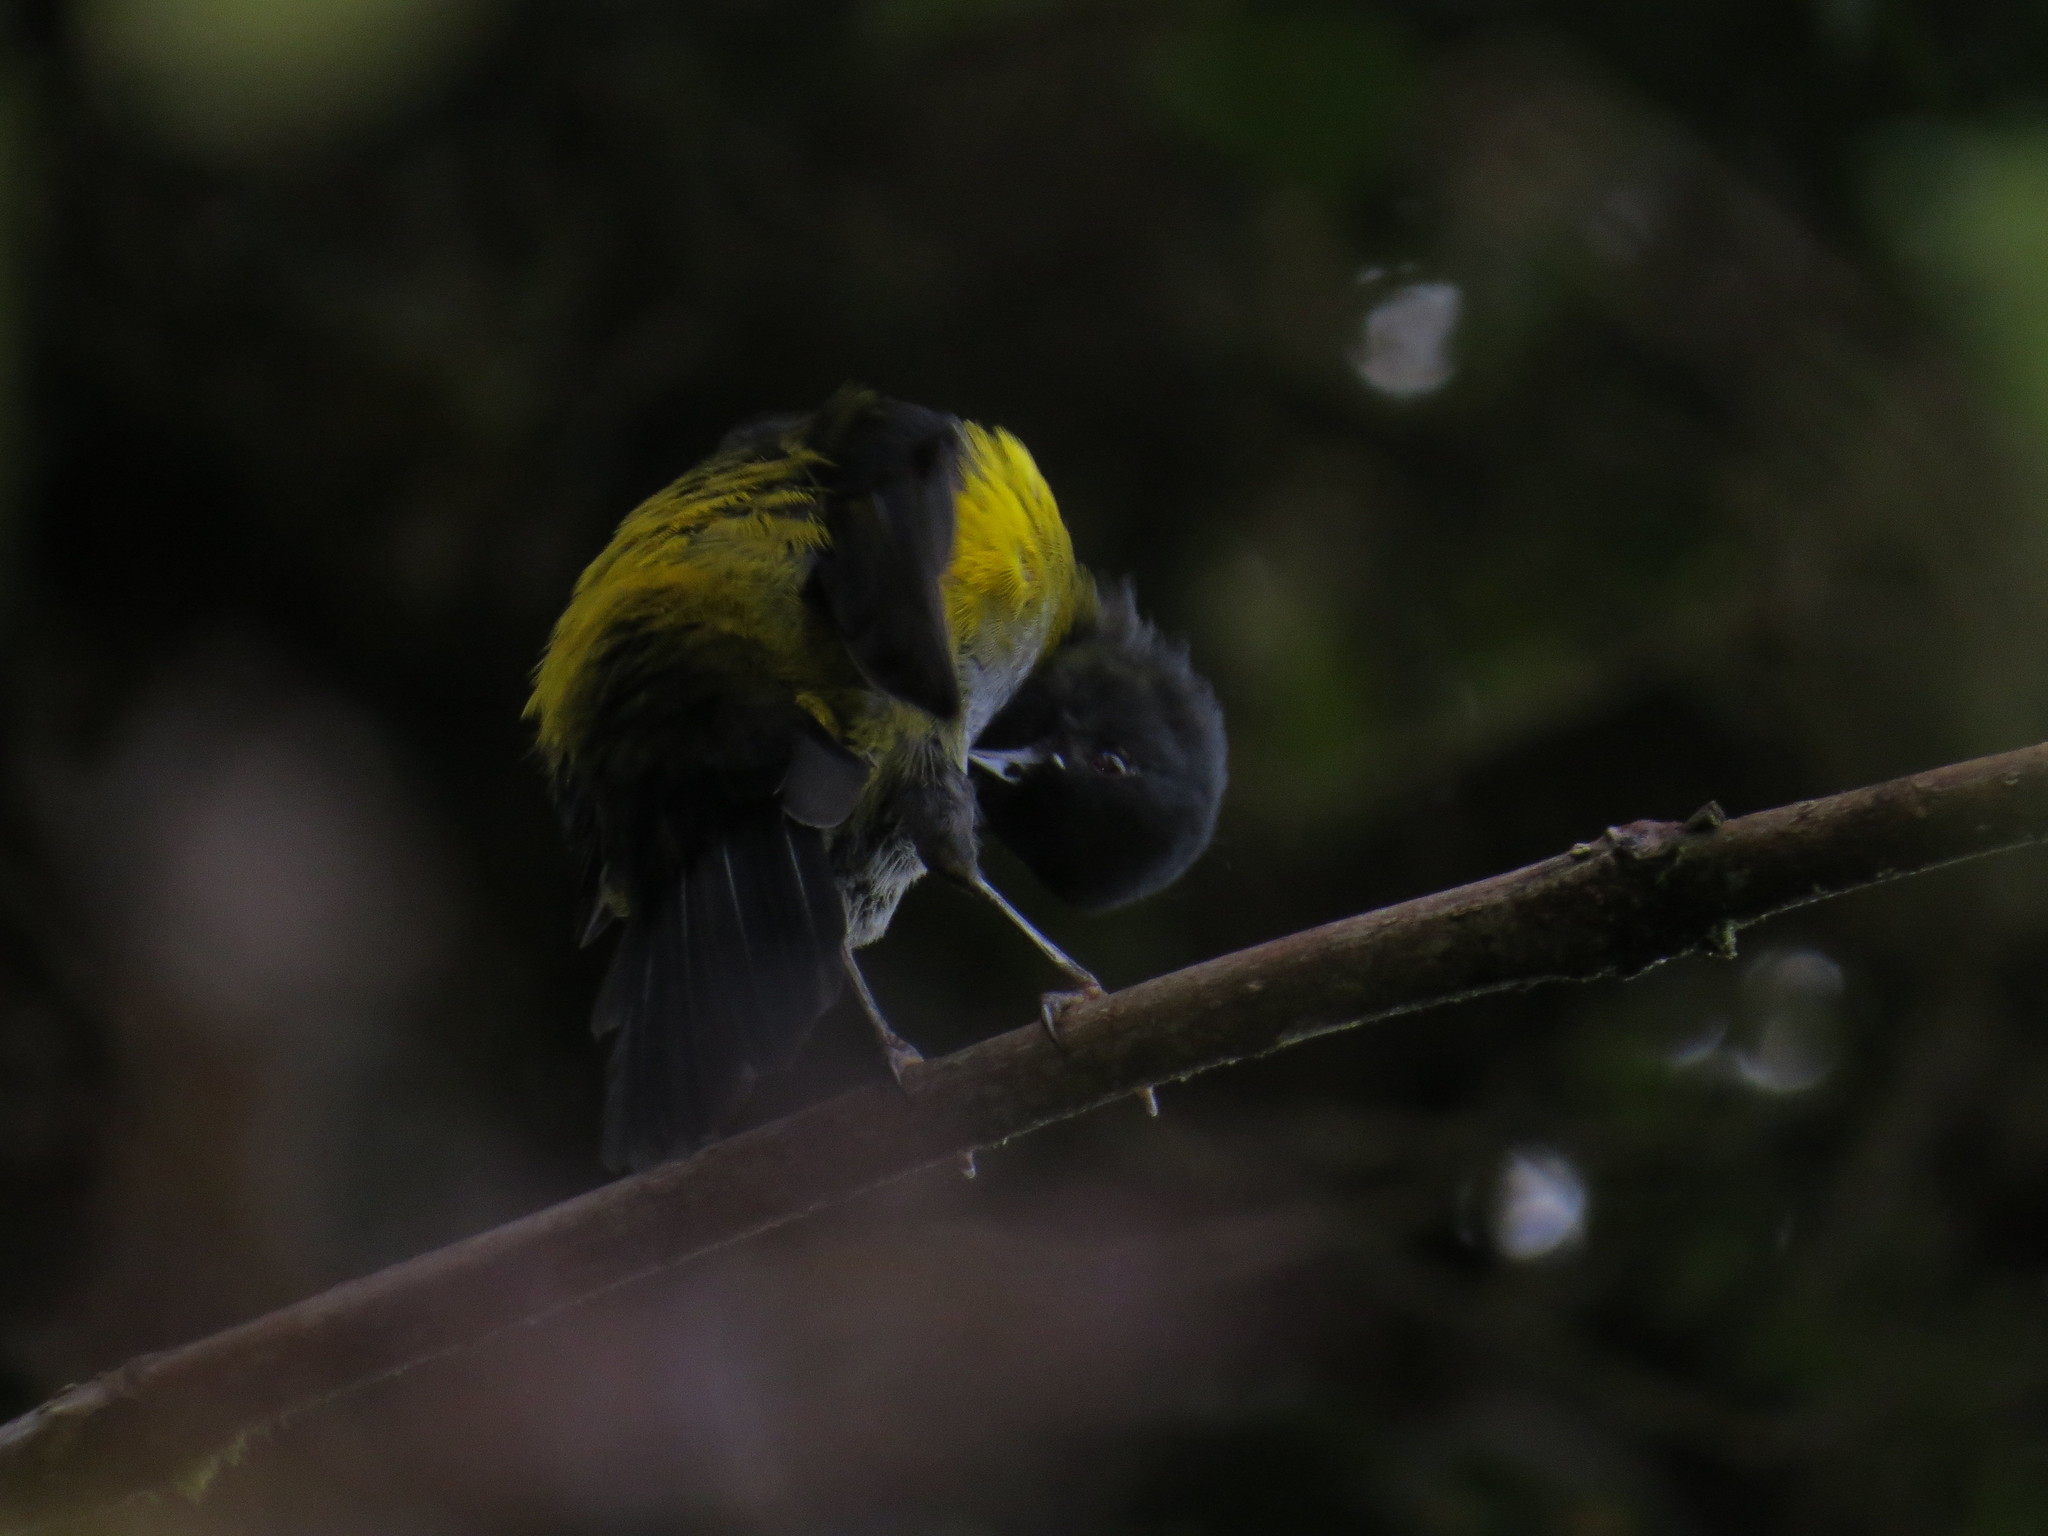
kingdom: Animalia
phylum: Chordata
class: Aves
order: Passeriformes
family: Ptilogonatidae
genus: Phainoptila
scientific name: Phainoptila melanoxantha
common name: Black-and-yellow phainoptila
